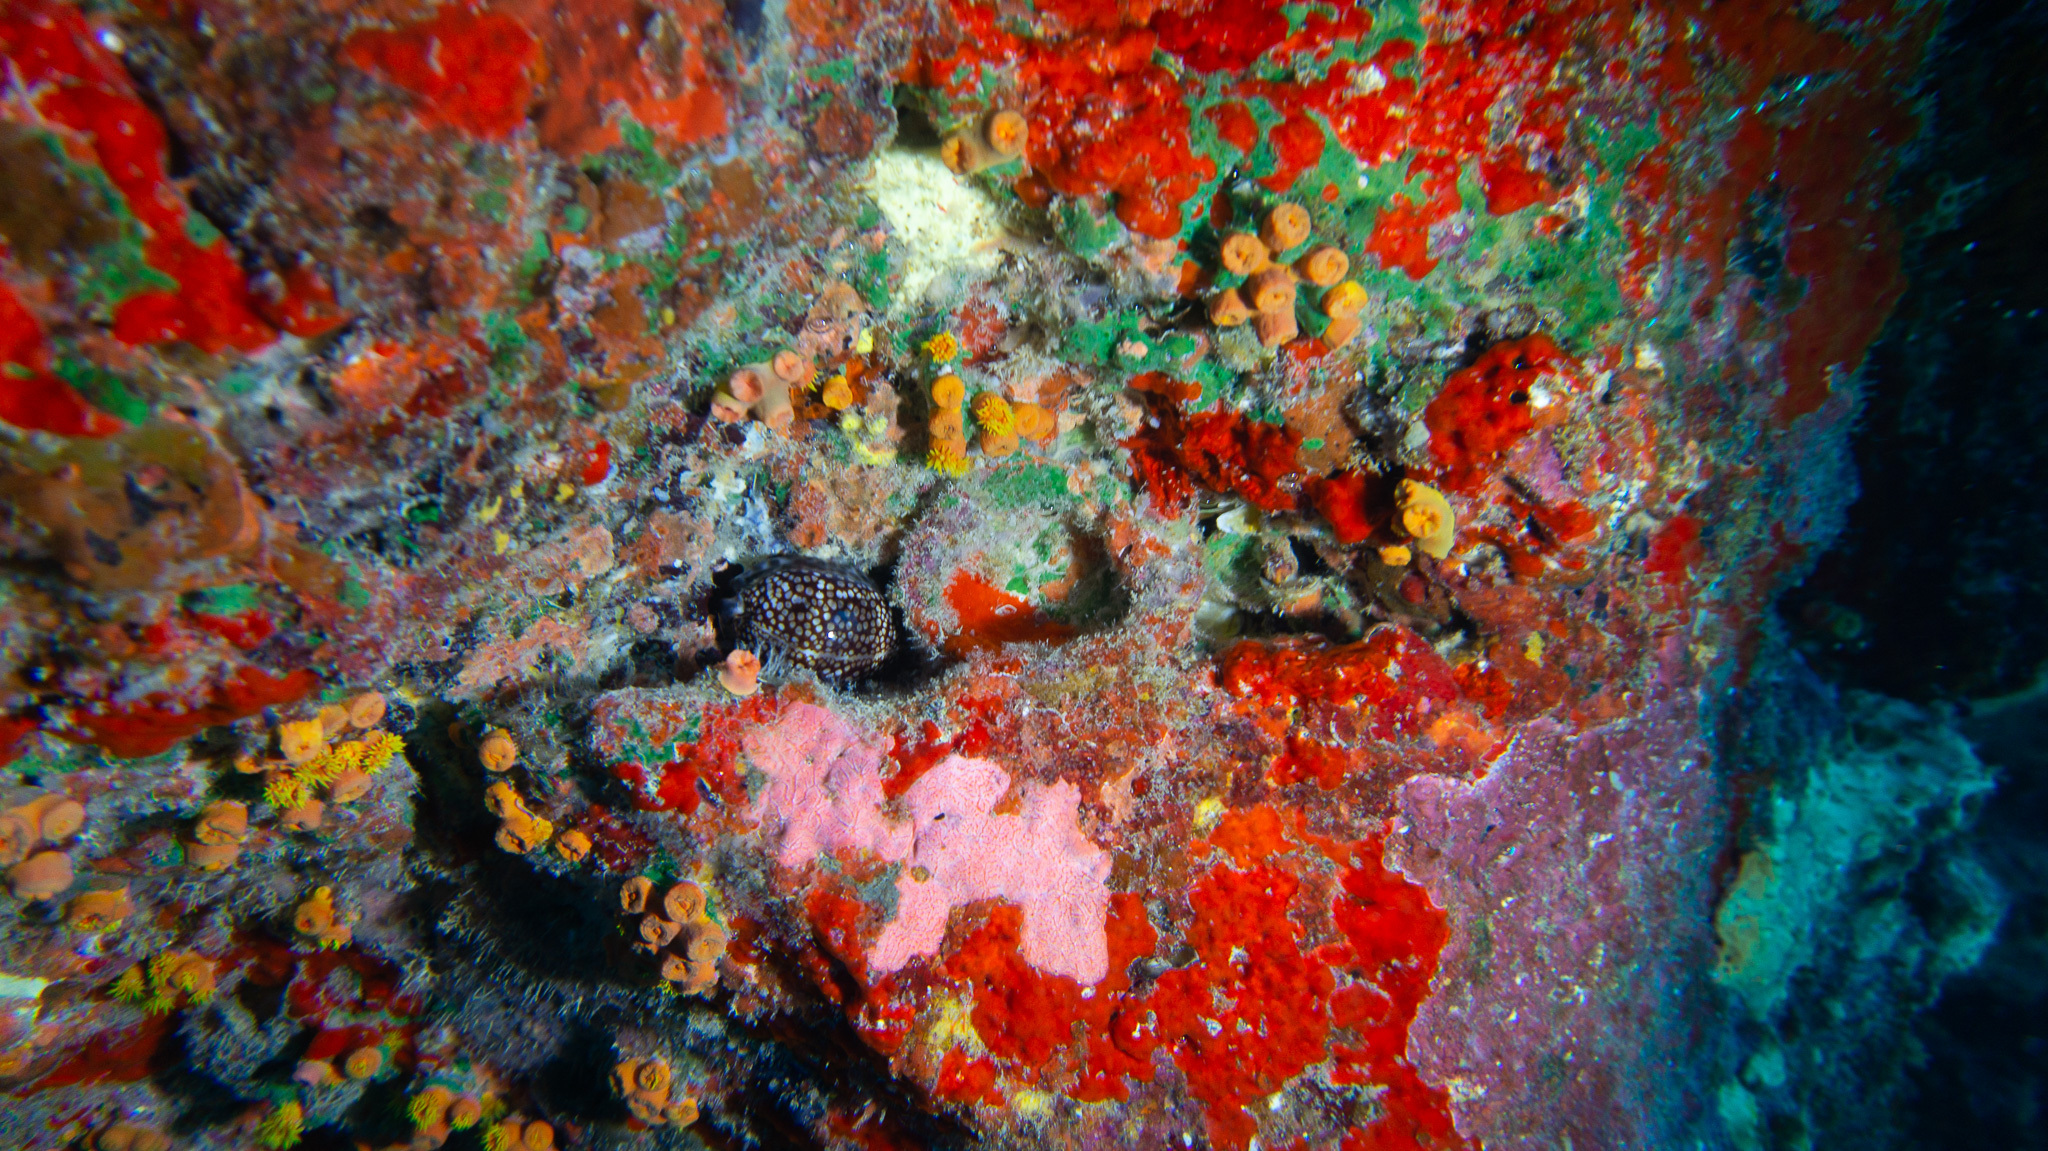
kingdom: Animalia
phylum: Mollusca
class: Gastropoda
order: Littorinimorpha
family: Cypraeidae
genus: Mauritia
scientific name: Mauritia maculifera
